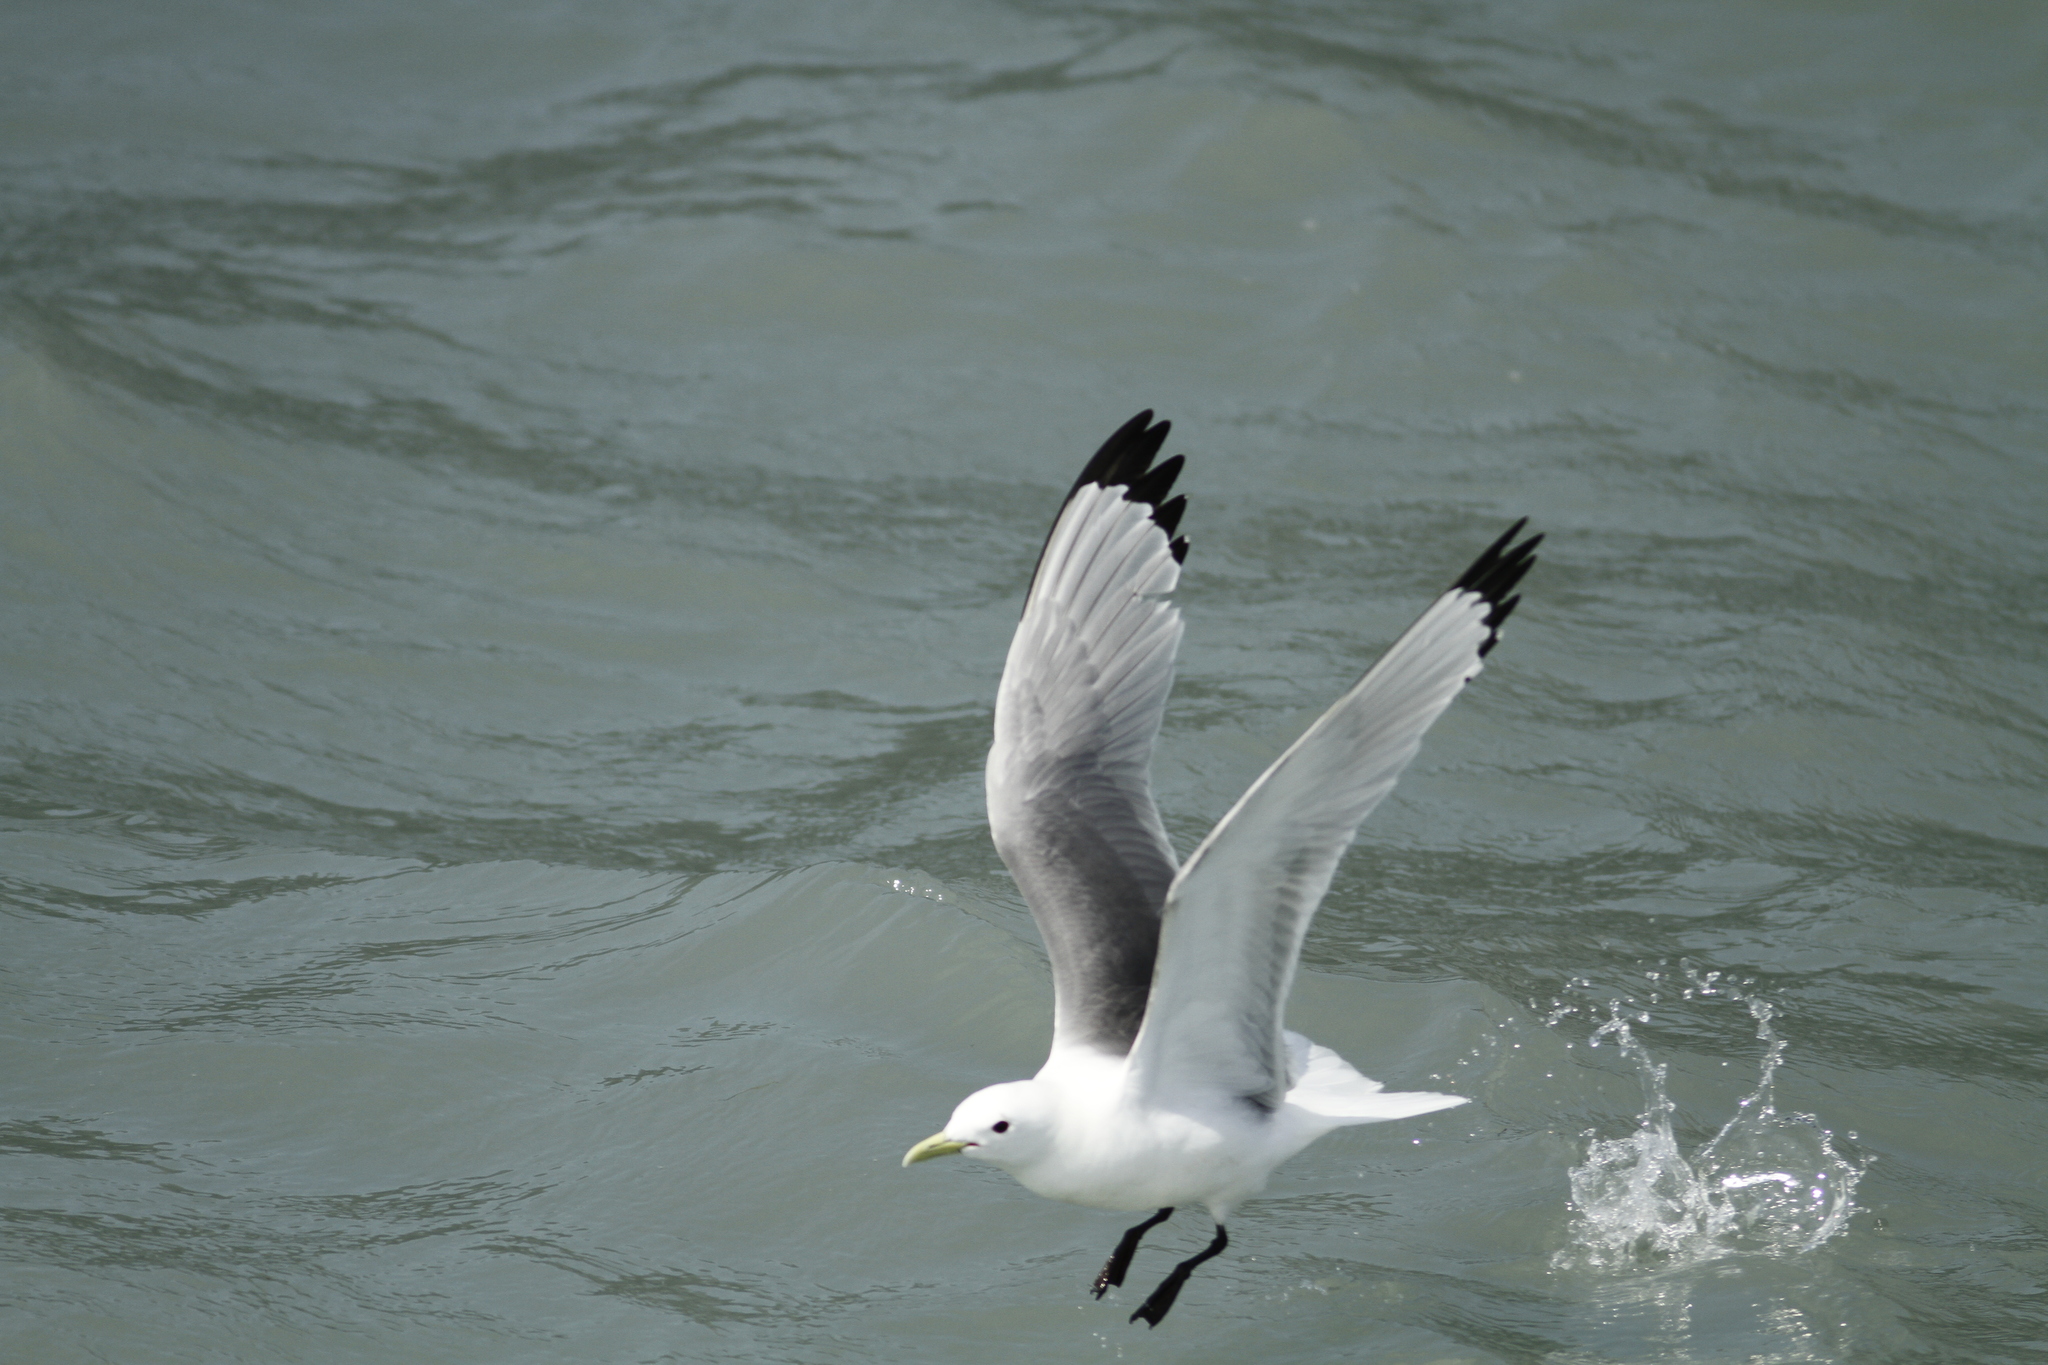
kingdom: Animalia
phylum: Chordata
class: Aves
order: Charadriiformes
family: Laridae
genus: Rissa
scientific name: Rissa tridactyla
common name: Black-legged kittiwake
